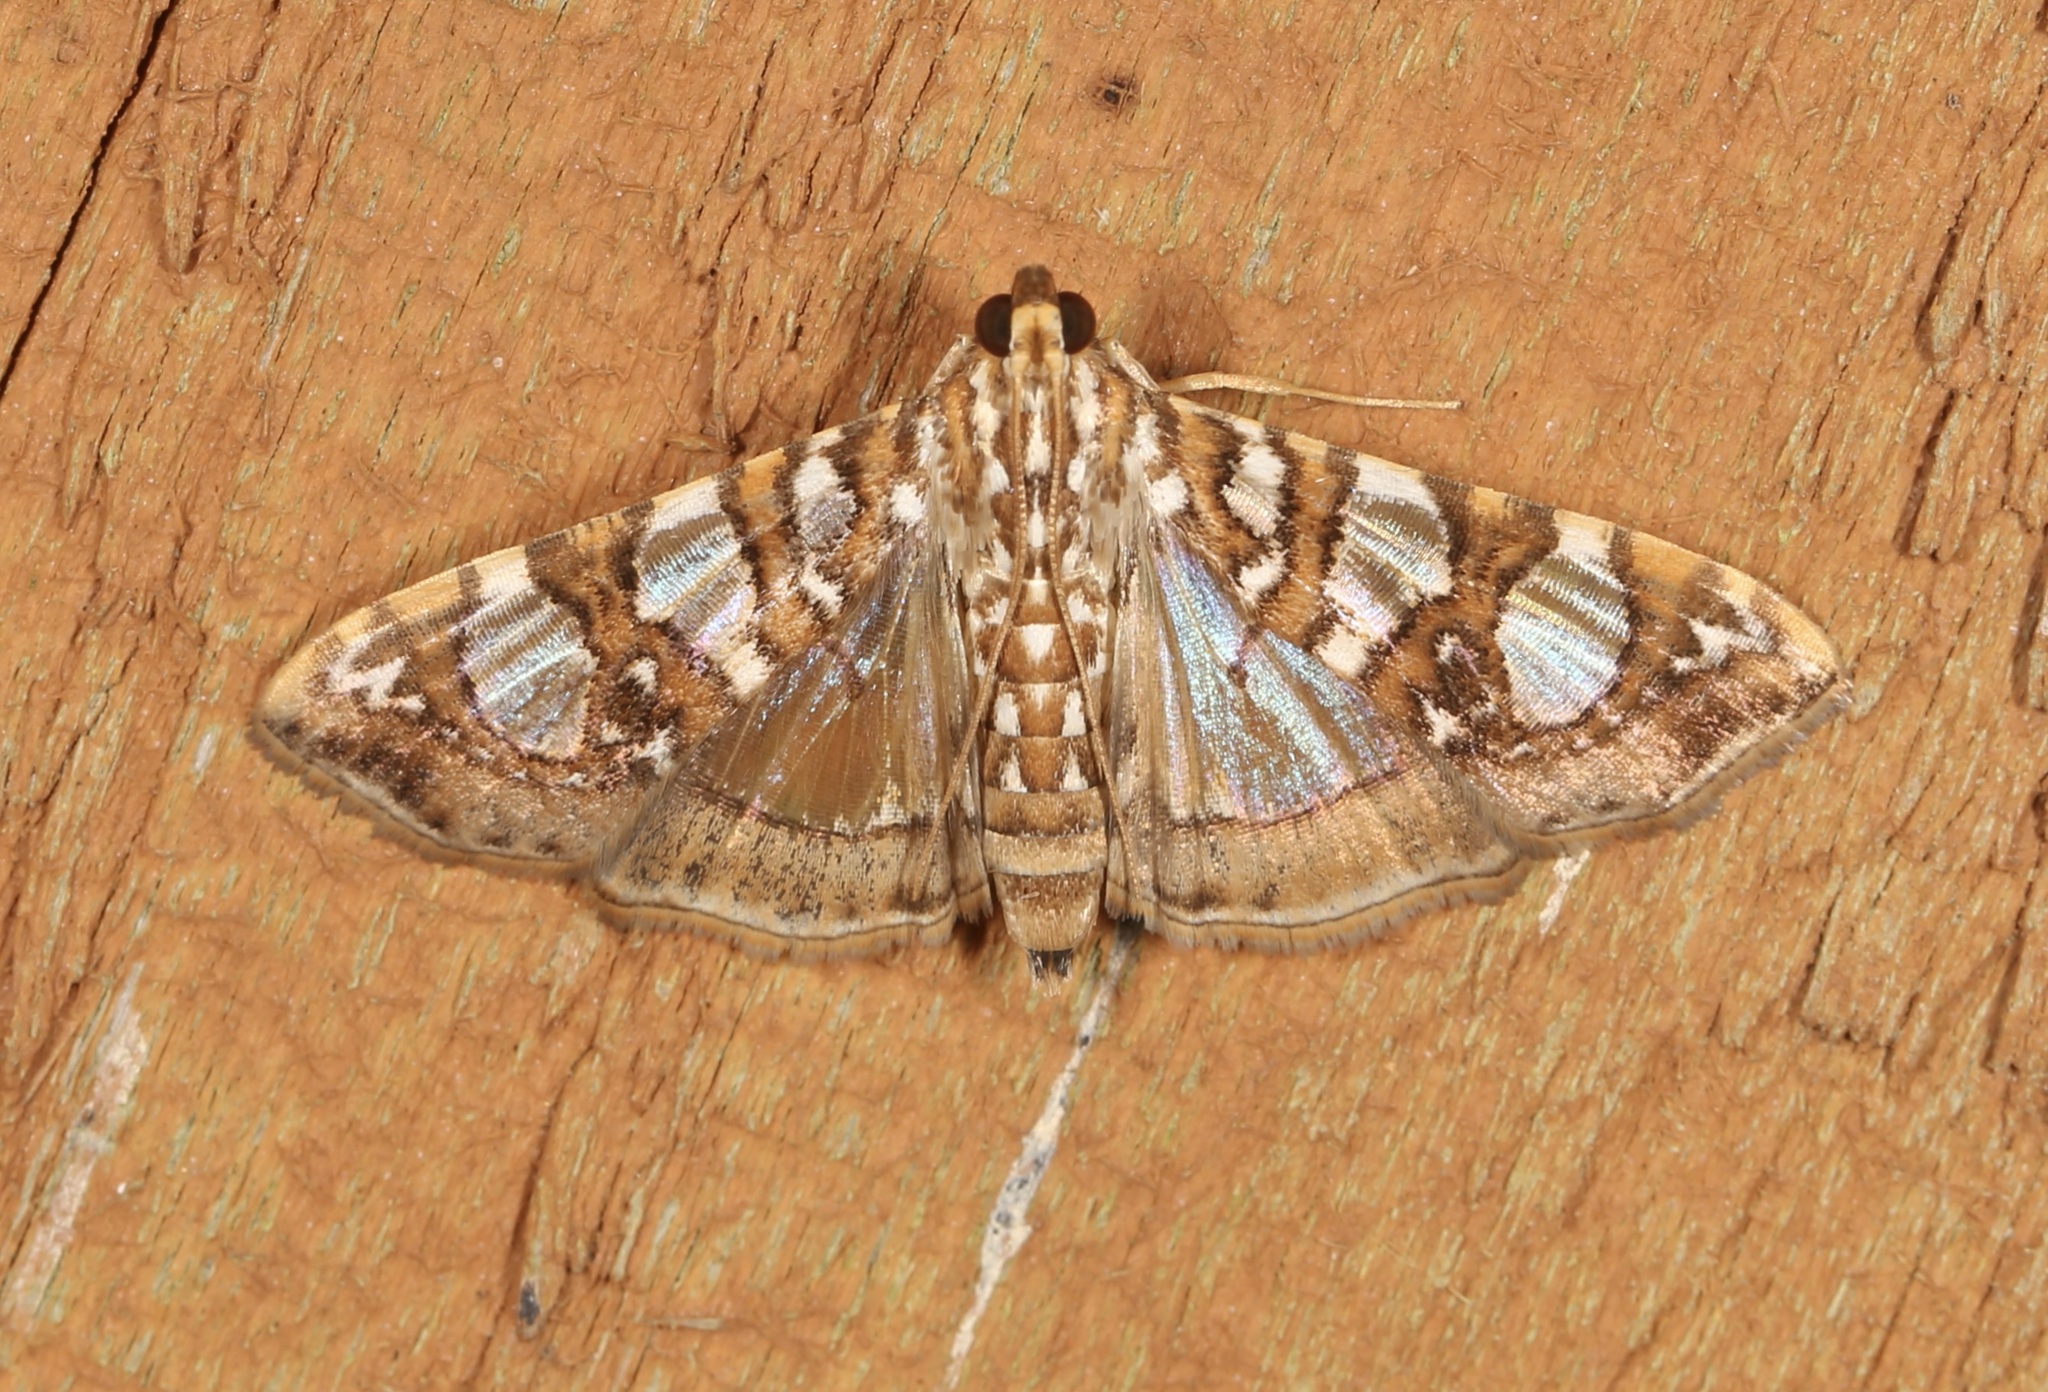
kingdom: Animalia
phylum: Arthropoda
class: Insecta
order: Lepidoptera
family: Crambidae
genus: Glyphodes
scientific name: Glyphodes sibillalis
